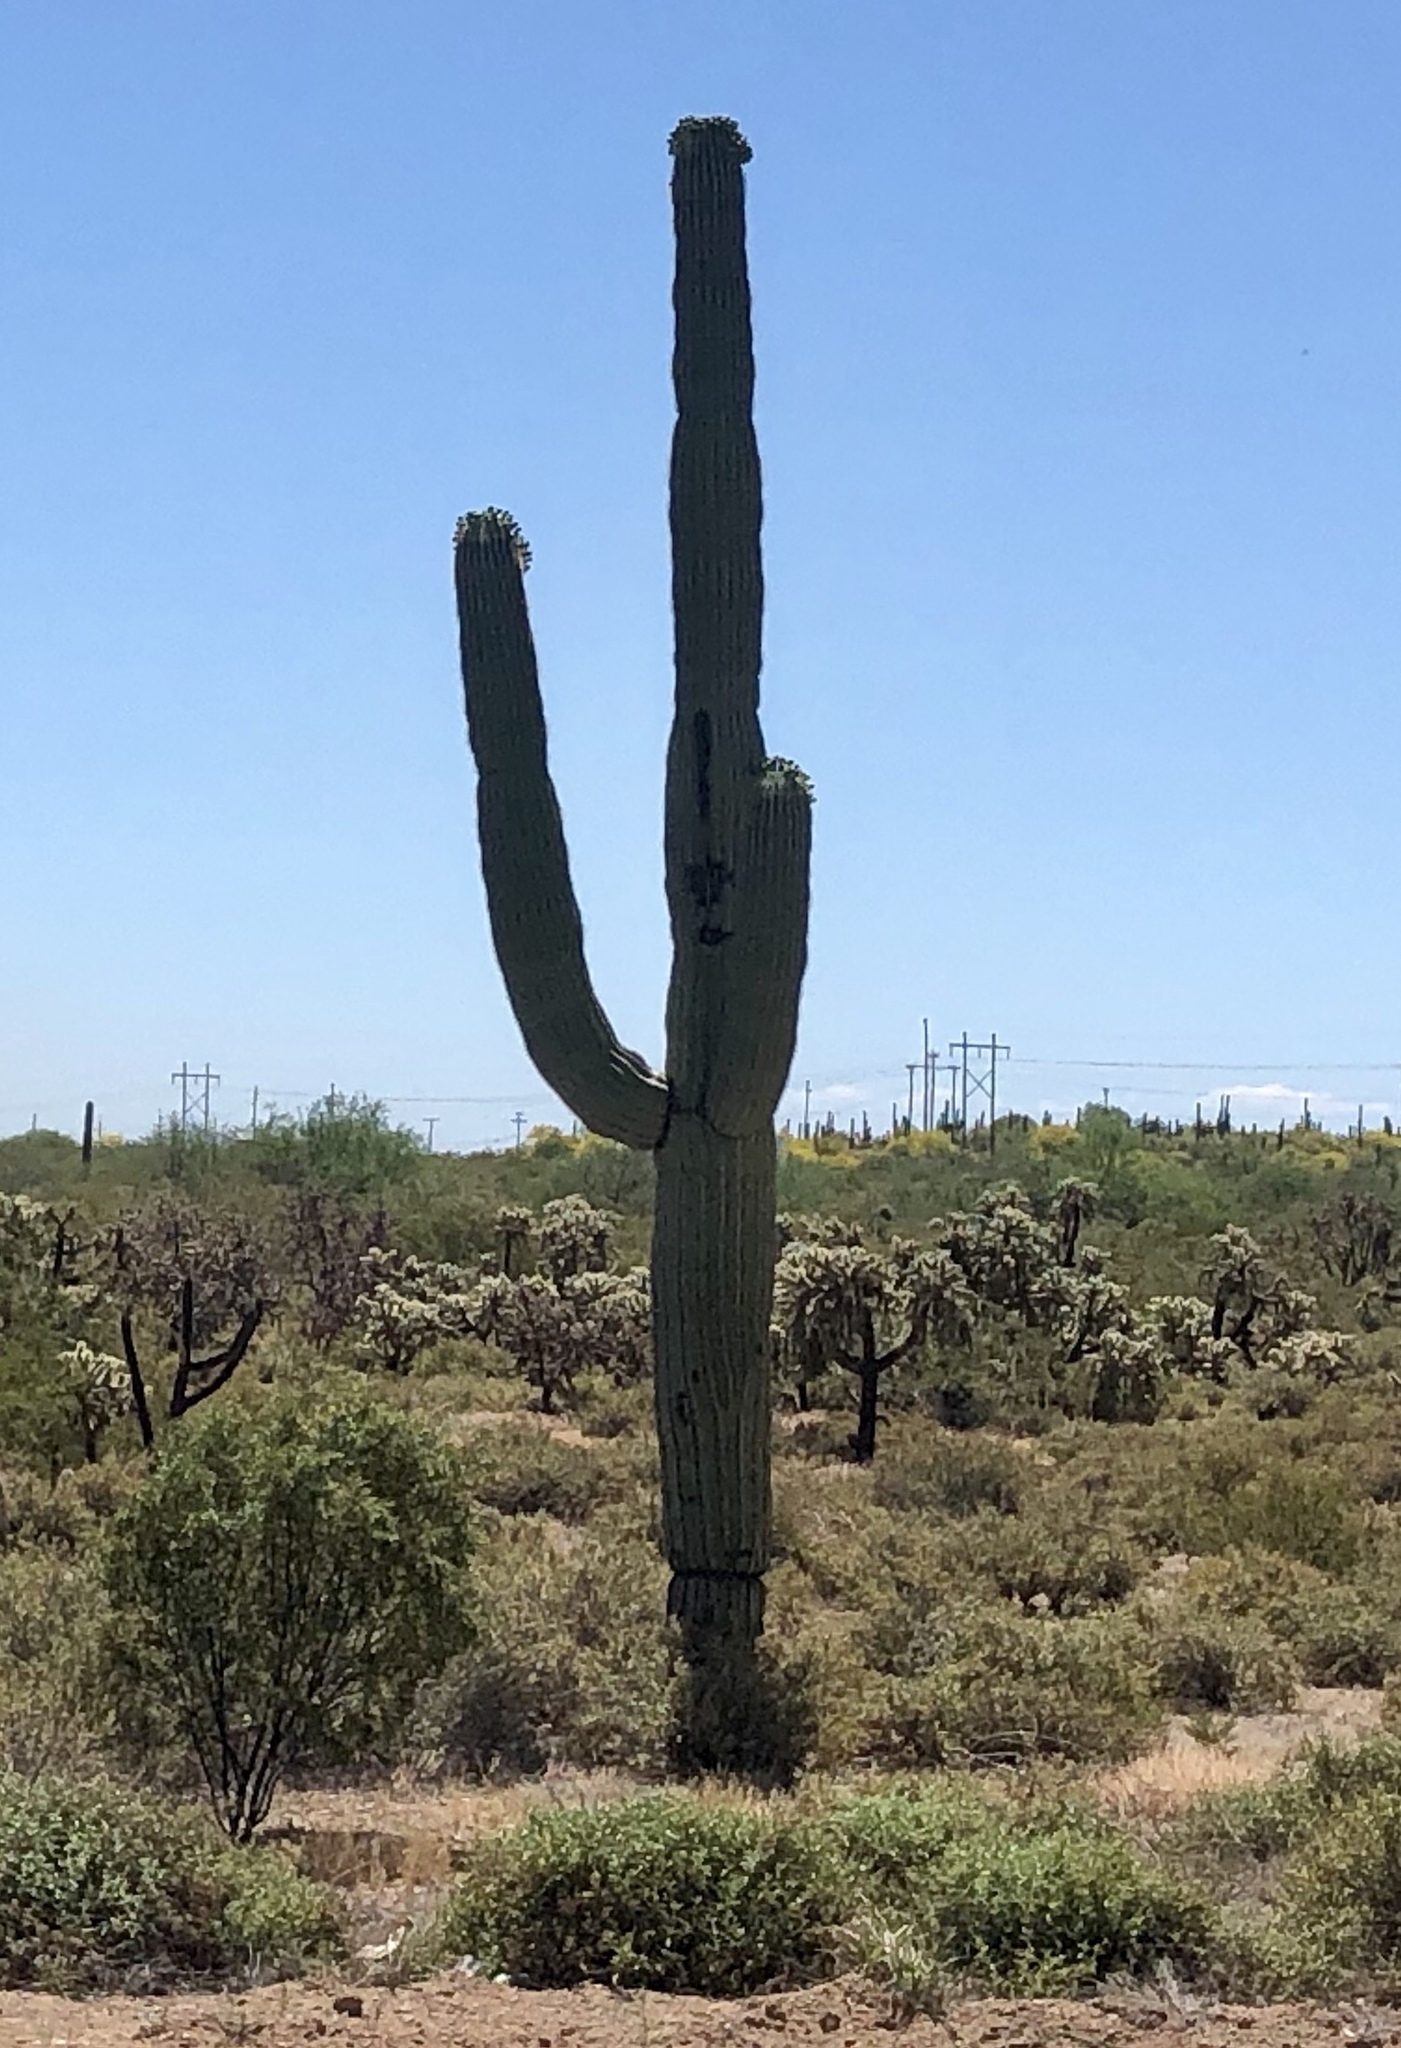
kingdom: Plantae
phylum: Tracheophyta
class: Magnoliopsida
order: Caryophyllales
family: Cactaceae
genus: Carnegiea
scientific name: Carnegiea gigantea
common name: Saguaro
